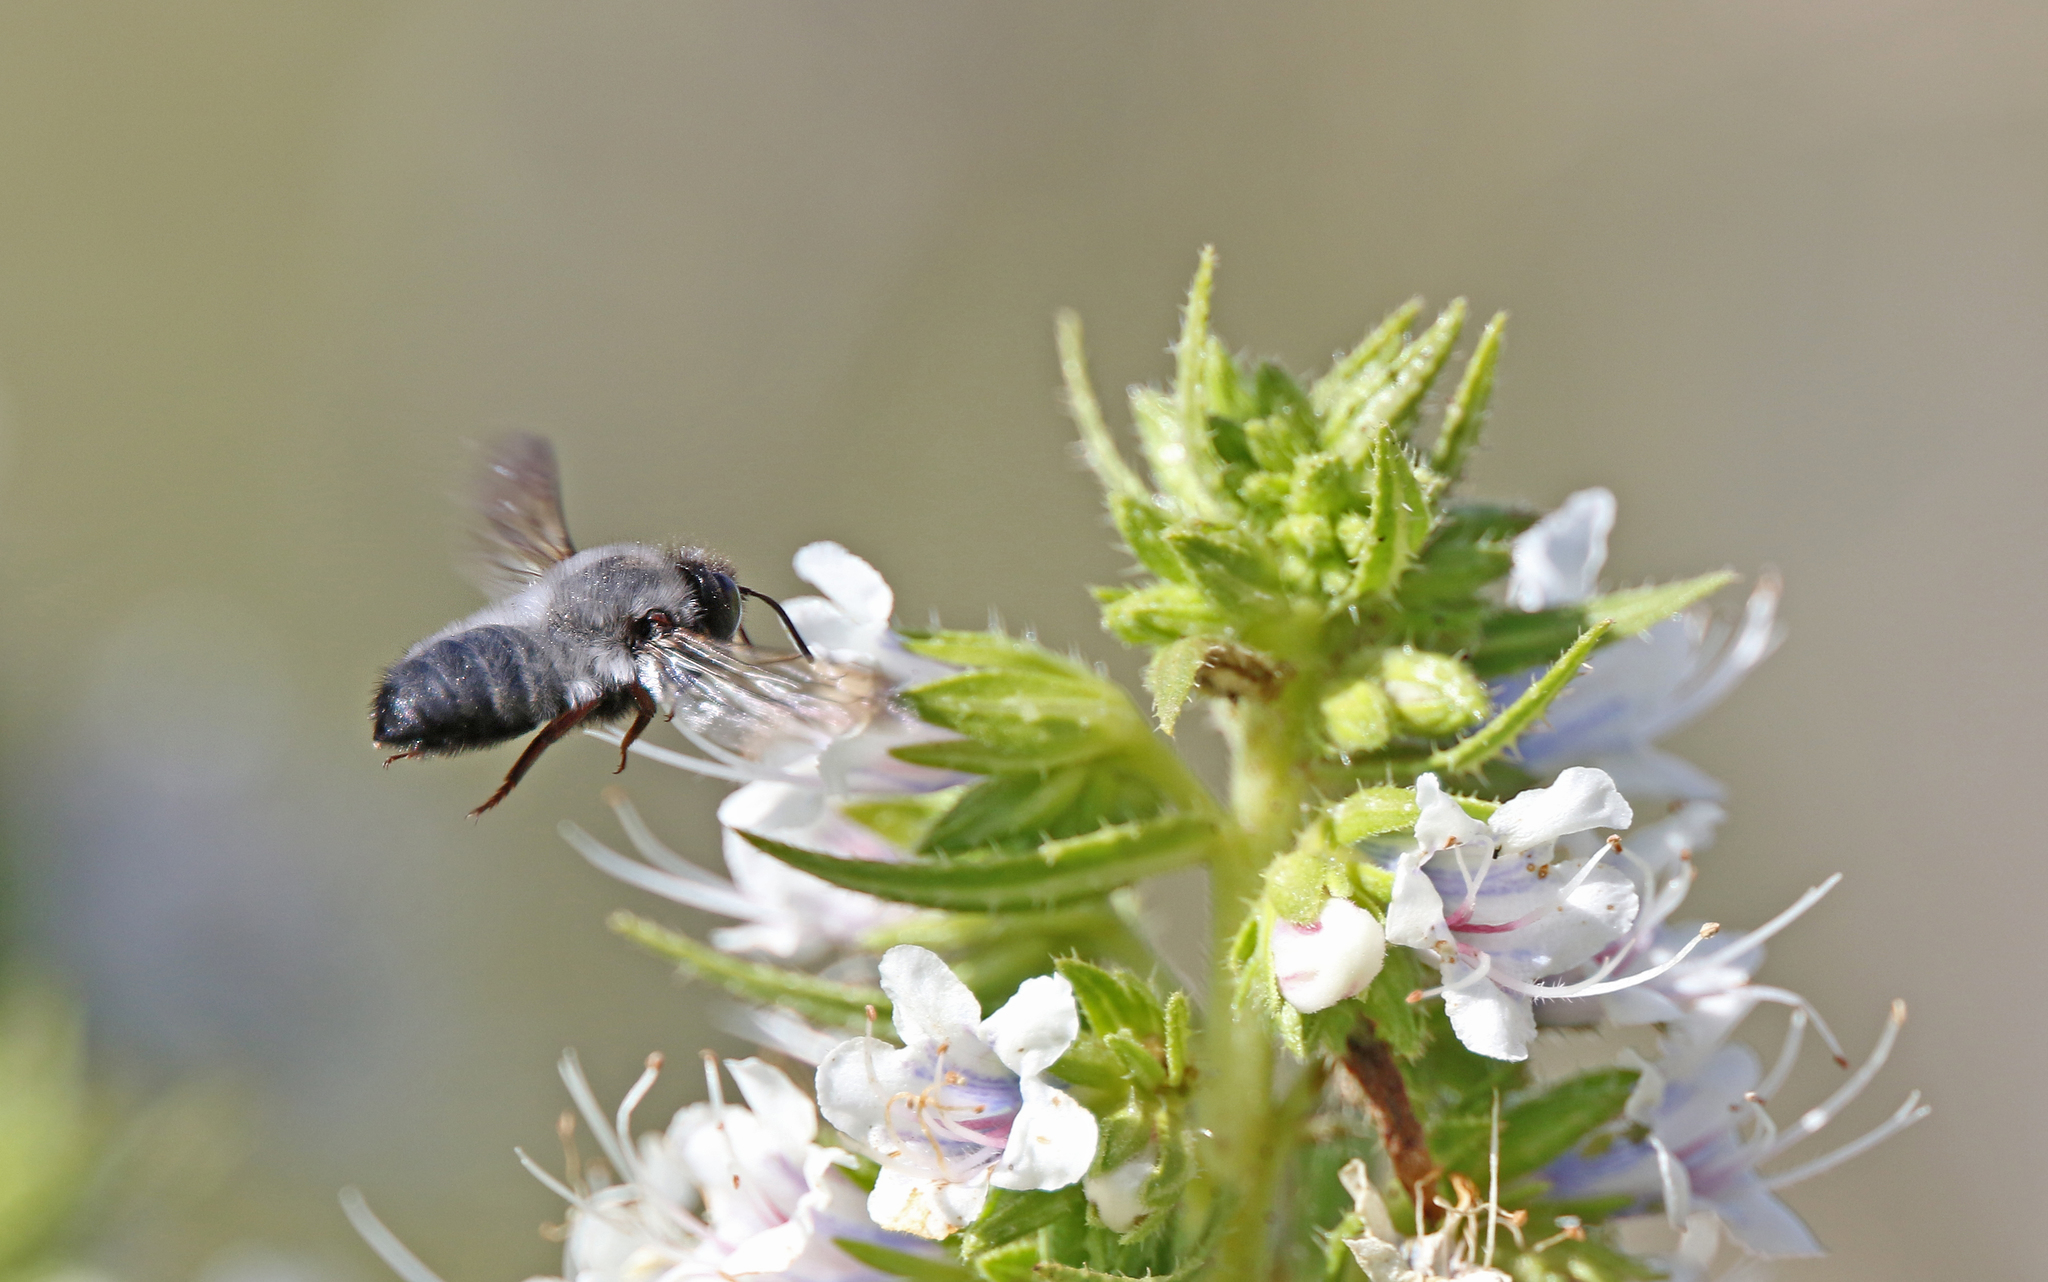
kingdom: Animalia
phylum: Arthropoda
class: Insecta
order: Hymenoptera
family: Megachilidae
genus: Megachile
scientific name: Megachile canescens
